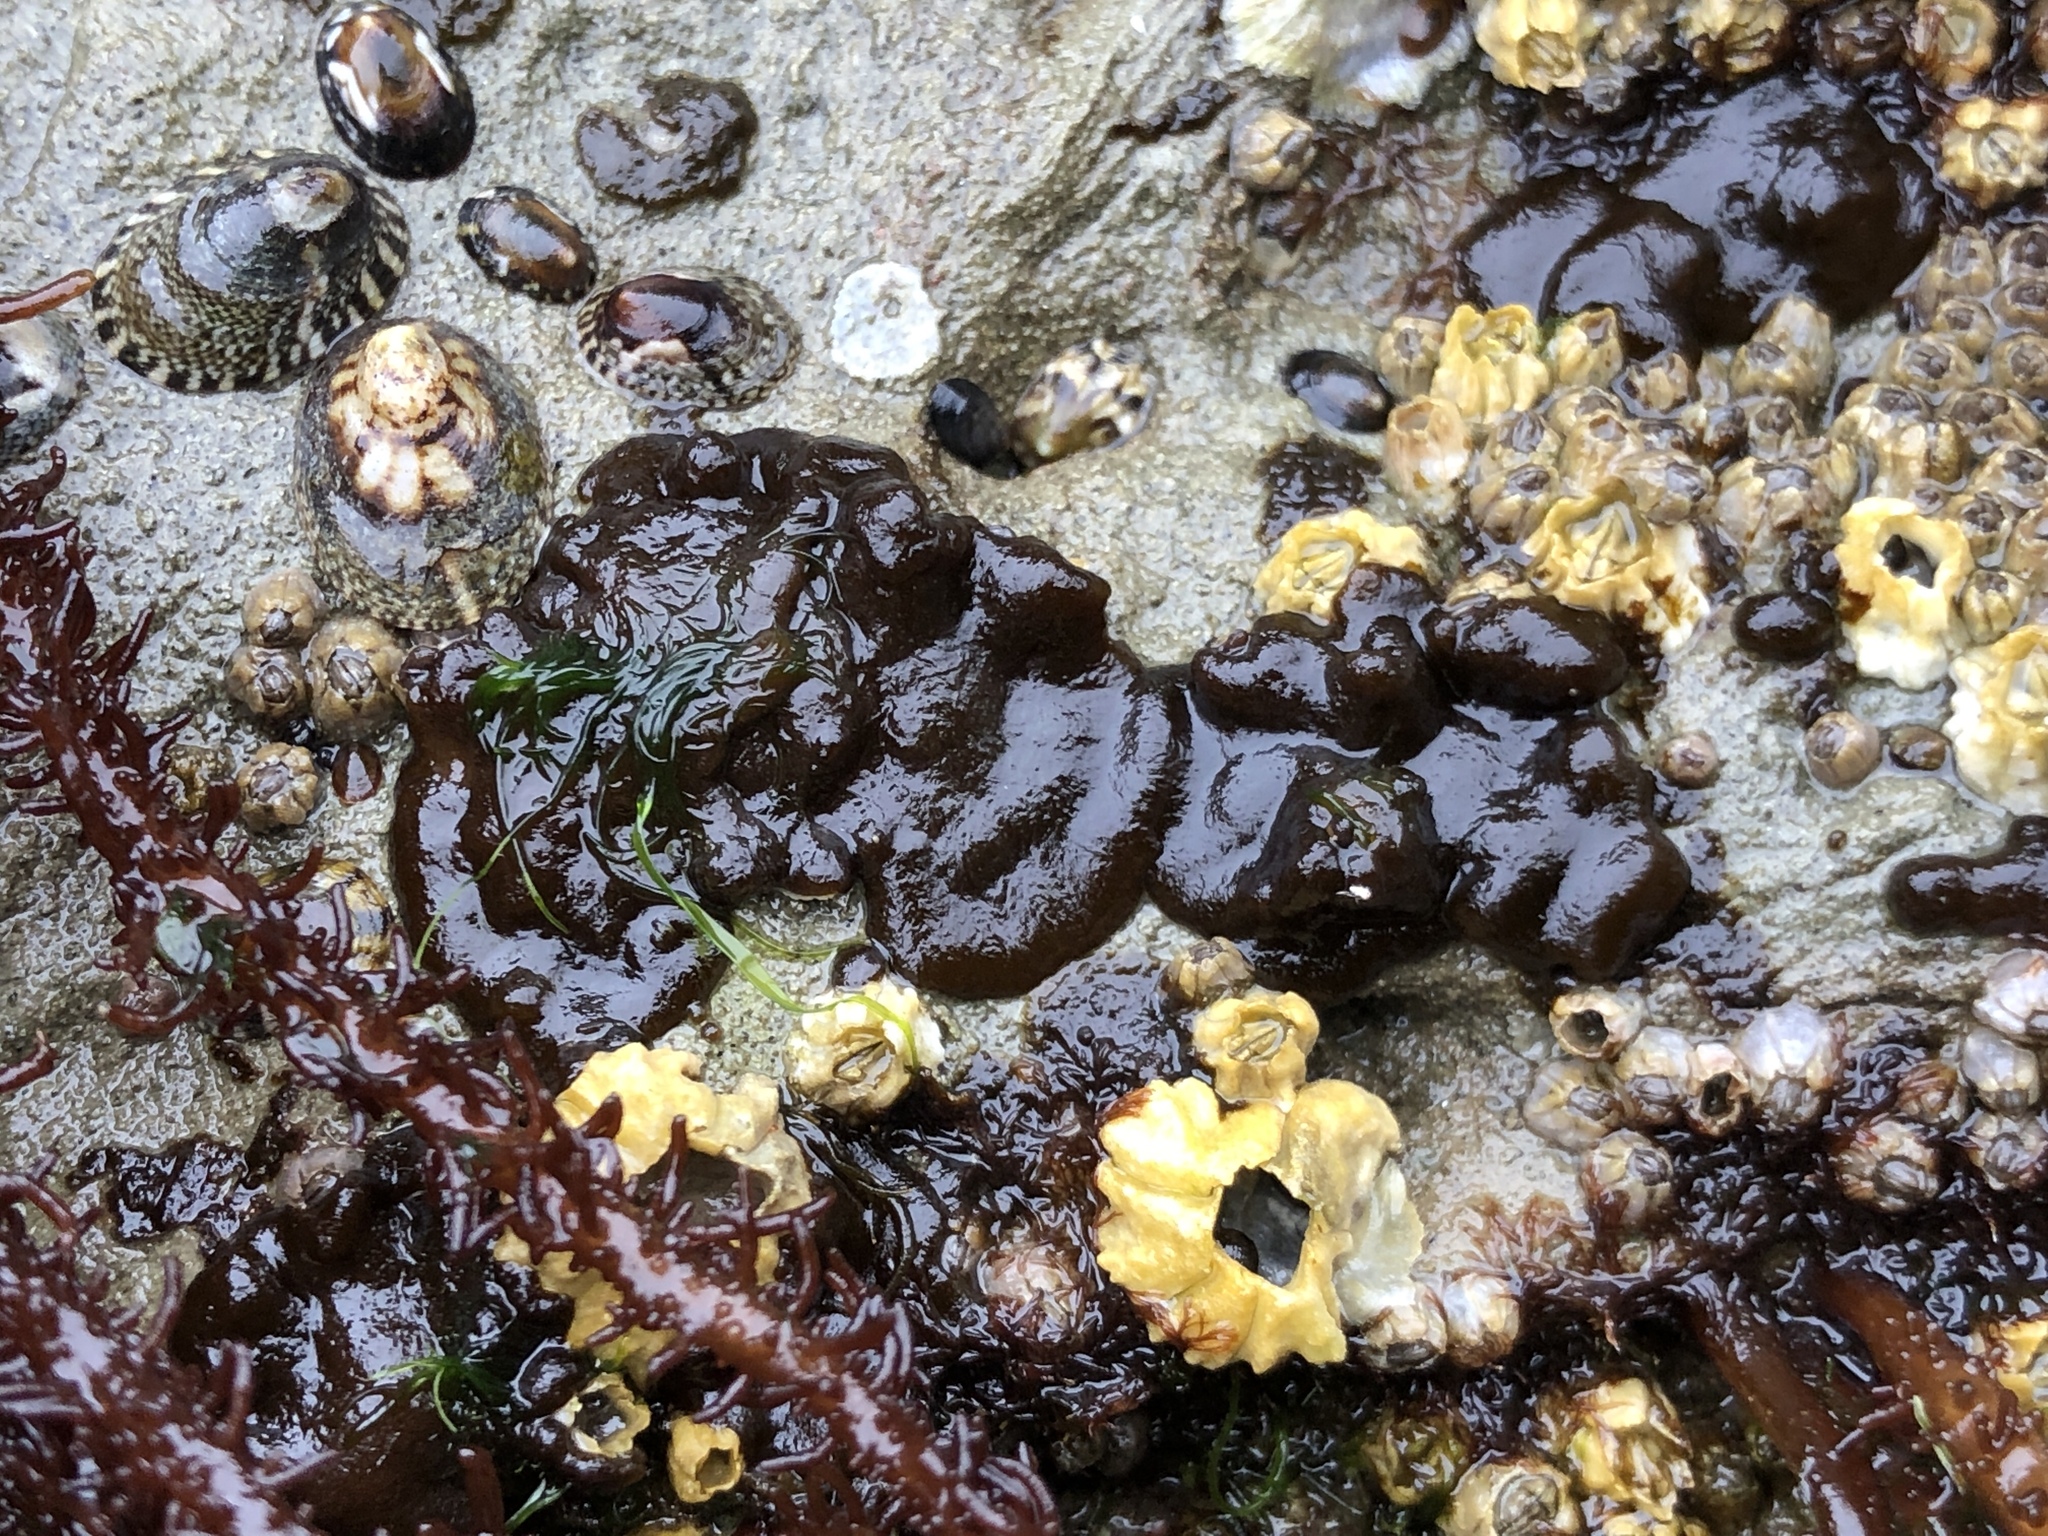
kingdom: Chromista
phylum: Ochrophyta
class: Phaeophyceae
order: Ectocarpales
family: Petrospongiaceae
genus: Petrospongium
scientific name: Petrospongium rugosum
